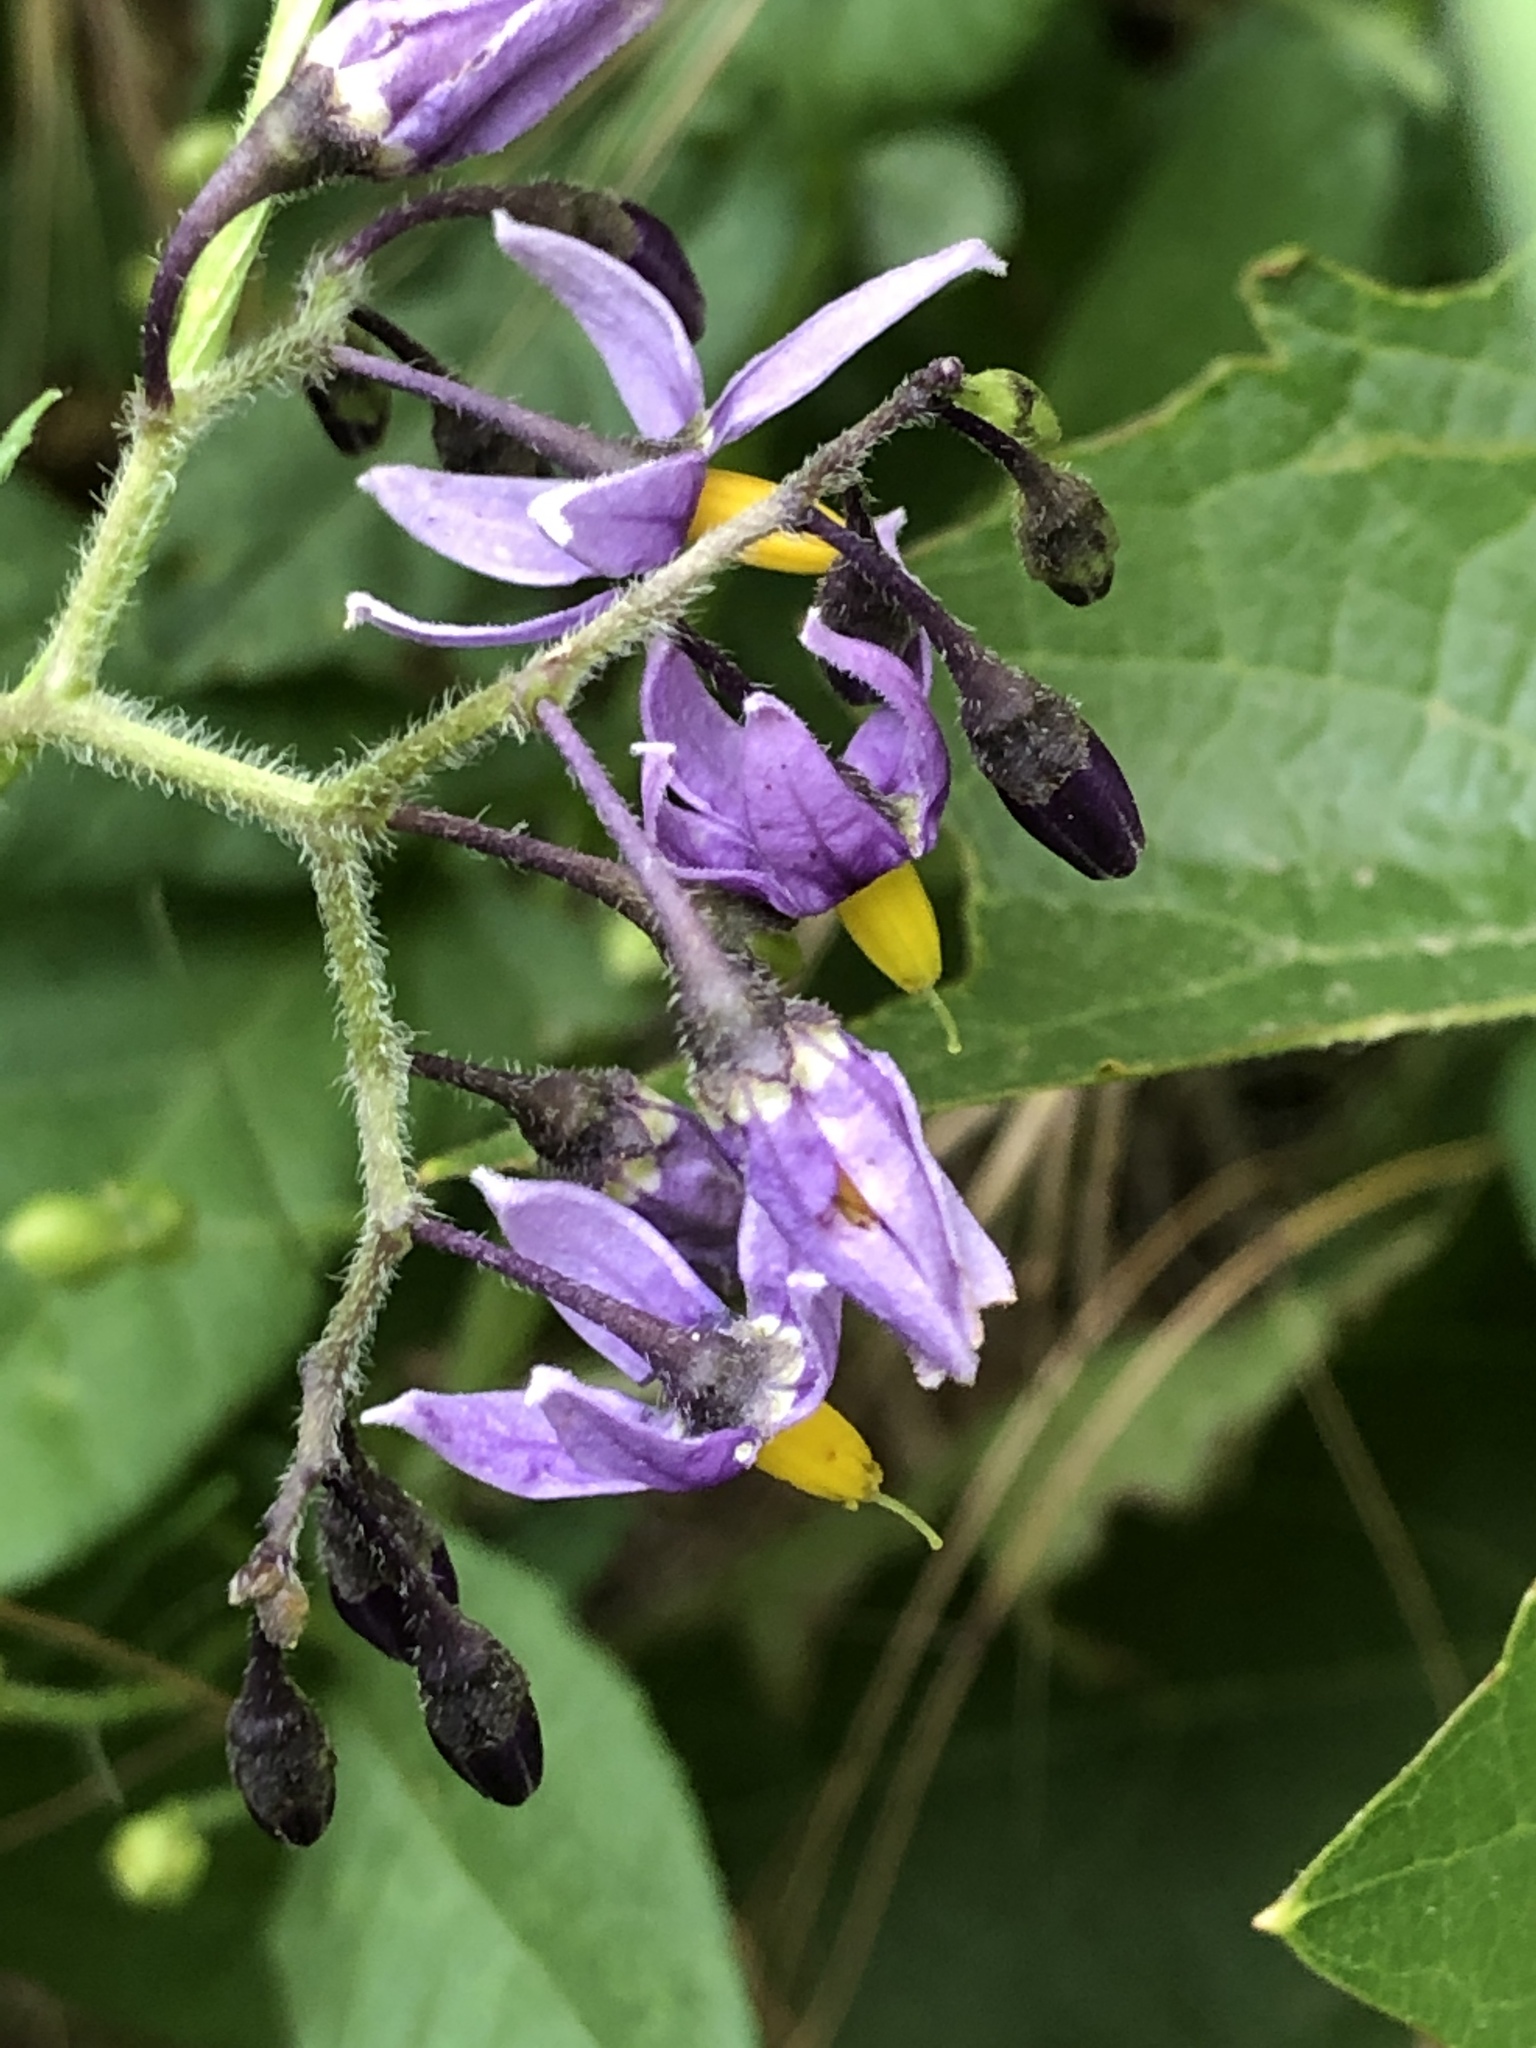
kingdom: Plantae
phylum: Tracheophyta
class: Magnoliopsida
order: Solanales
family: Solanaceae
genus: Solanum
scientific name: Solanum dulcamara
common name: Climbing nightshade
